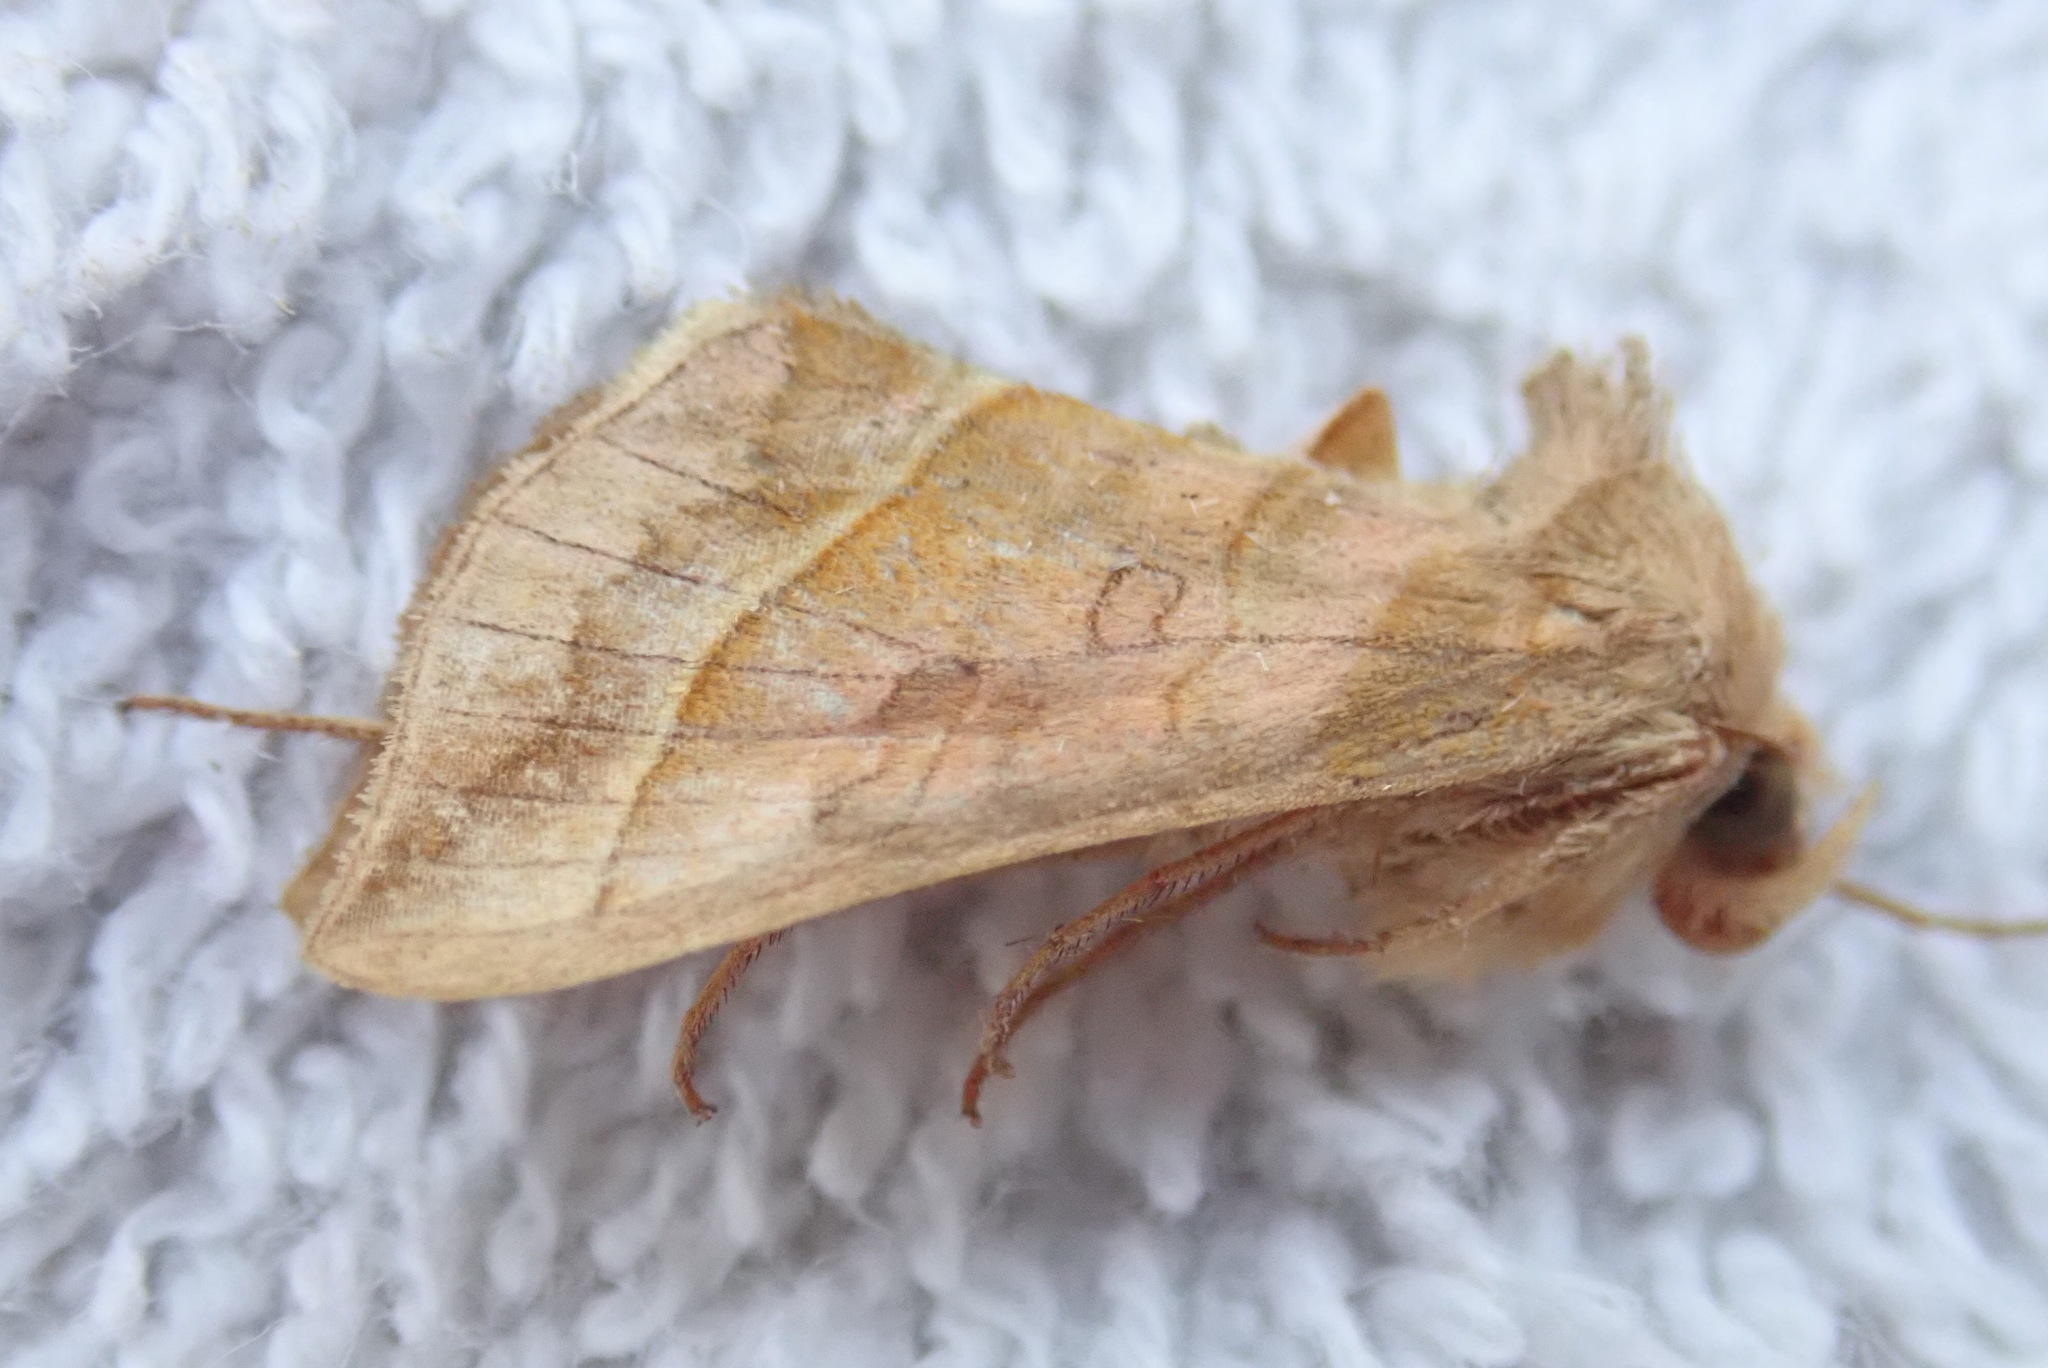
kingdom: Animalia
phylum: Arthropoda
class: Insecta
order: Lepidoptera
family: Noctuidae
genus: Diachrysia
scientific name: Diachrysia aereoides
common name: Dark-spotted looper moth
